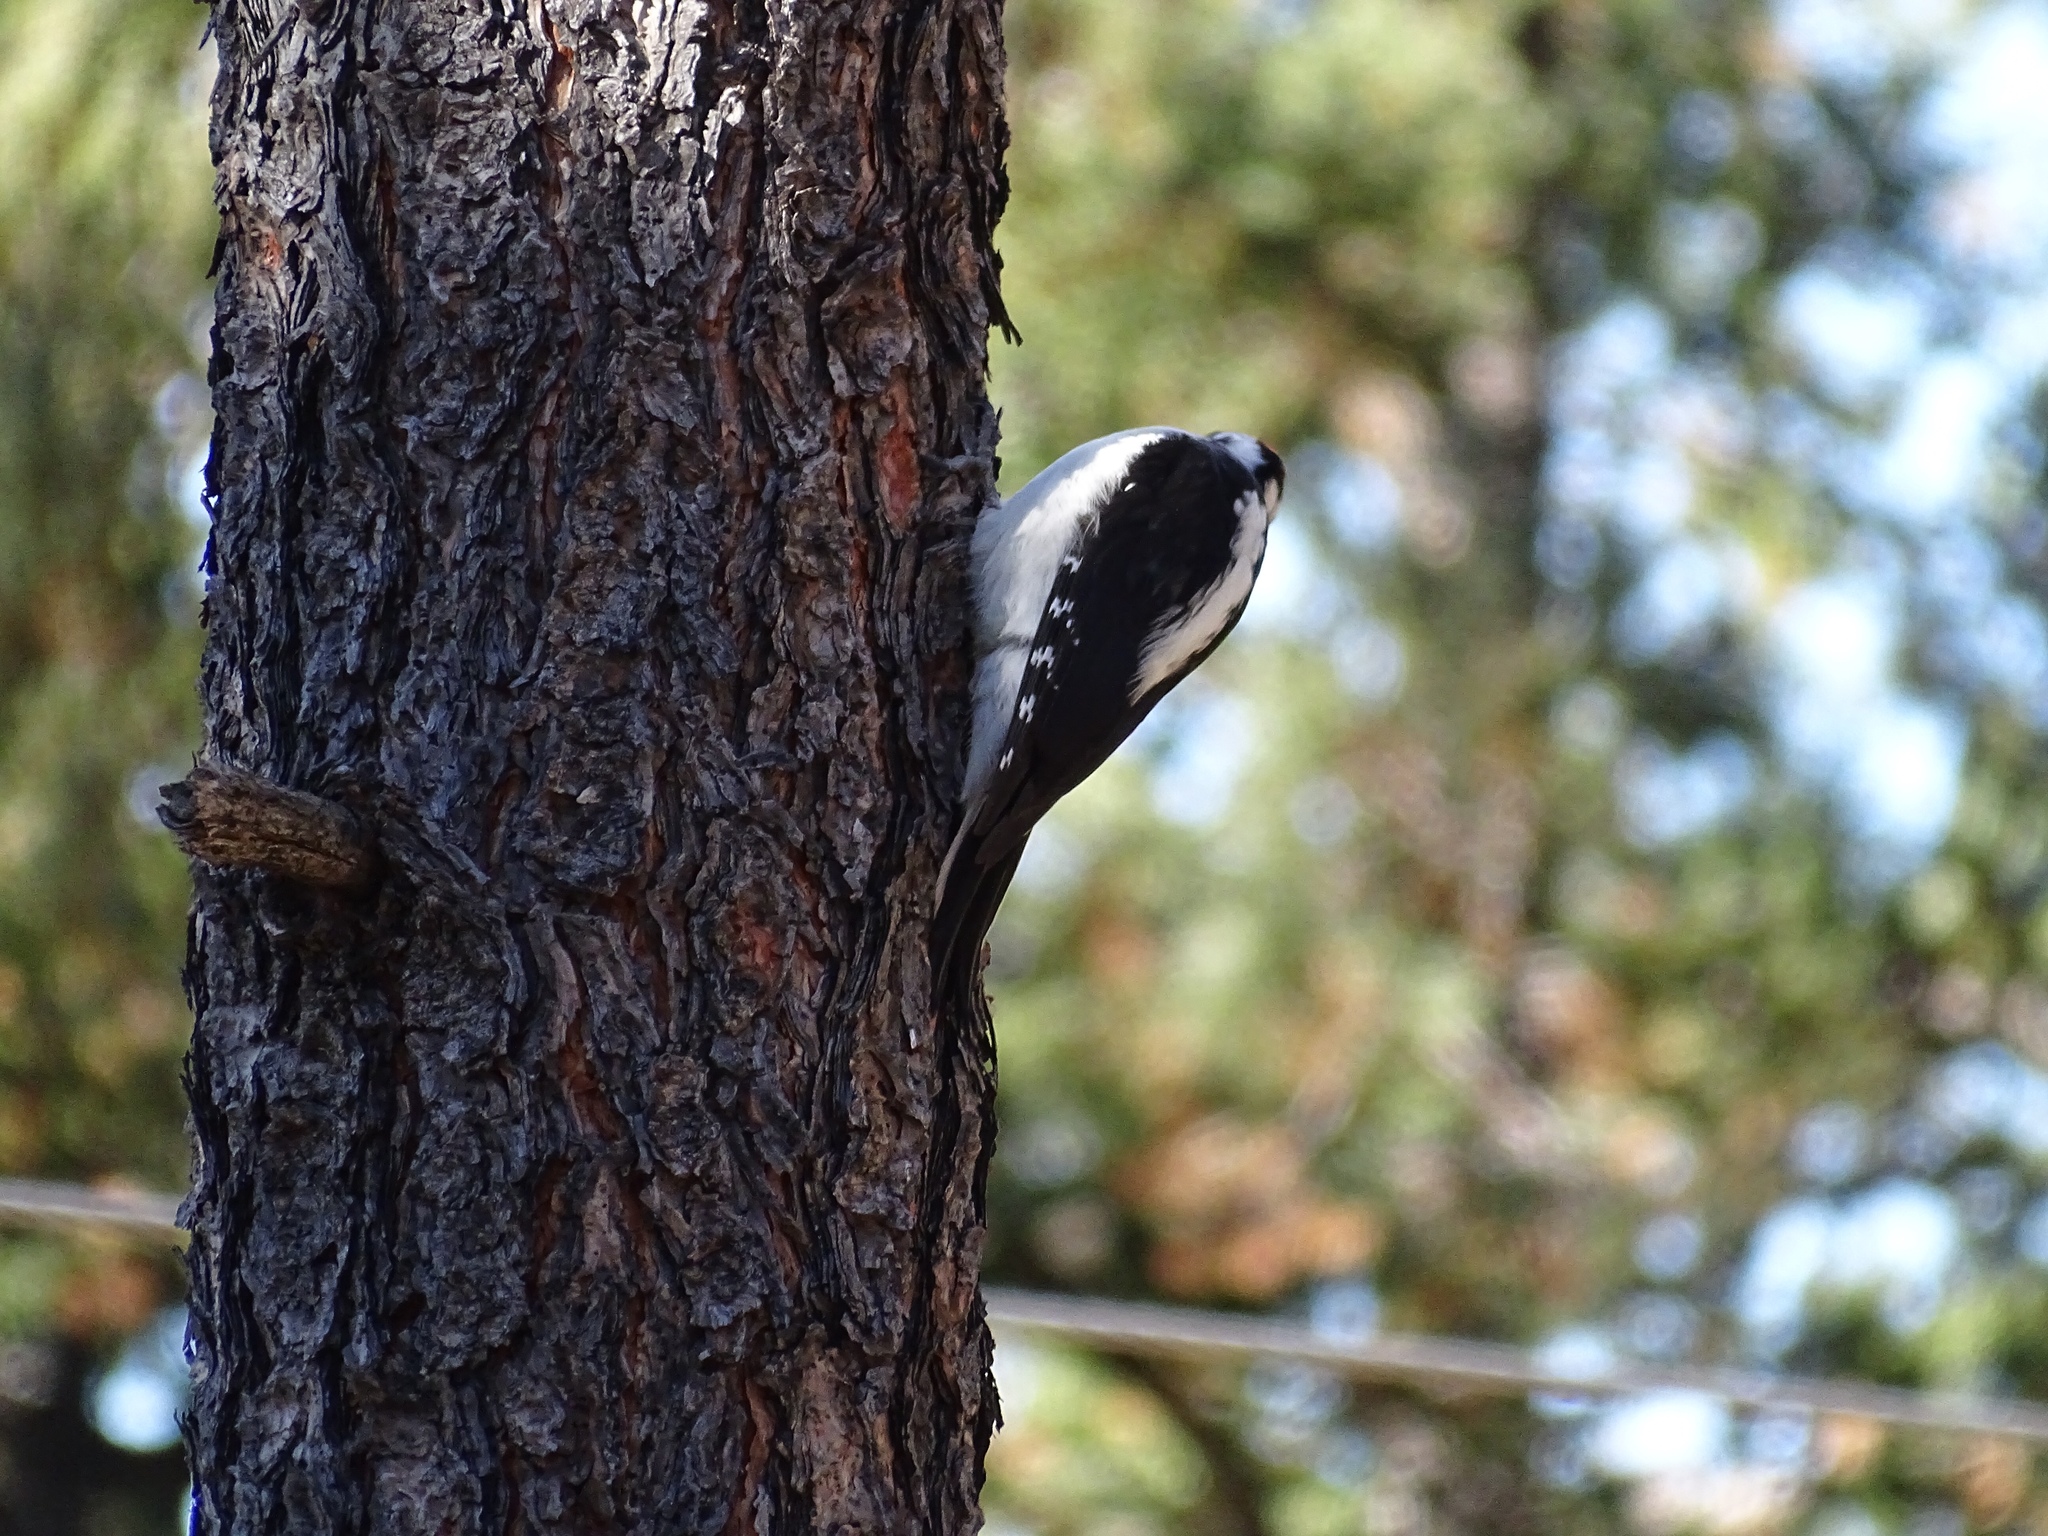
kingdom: Animalia
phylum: Chordata
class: Aves
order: Piciformes
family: Picidae
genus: Leuconotopicus
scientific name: Leuconotopicus villosus
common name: Hairy woodpecker
